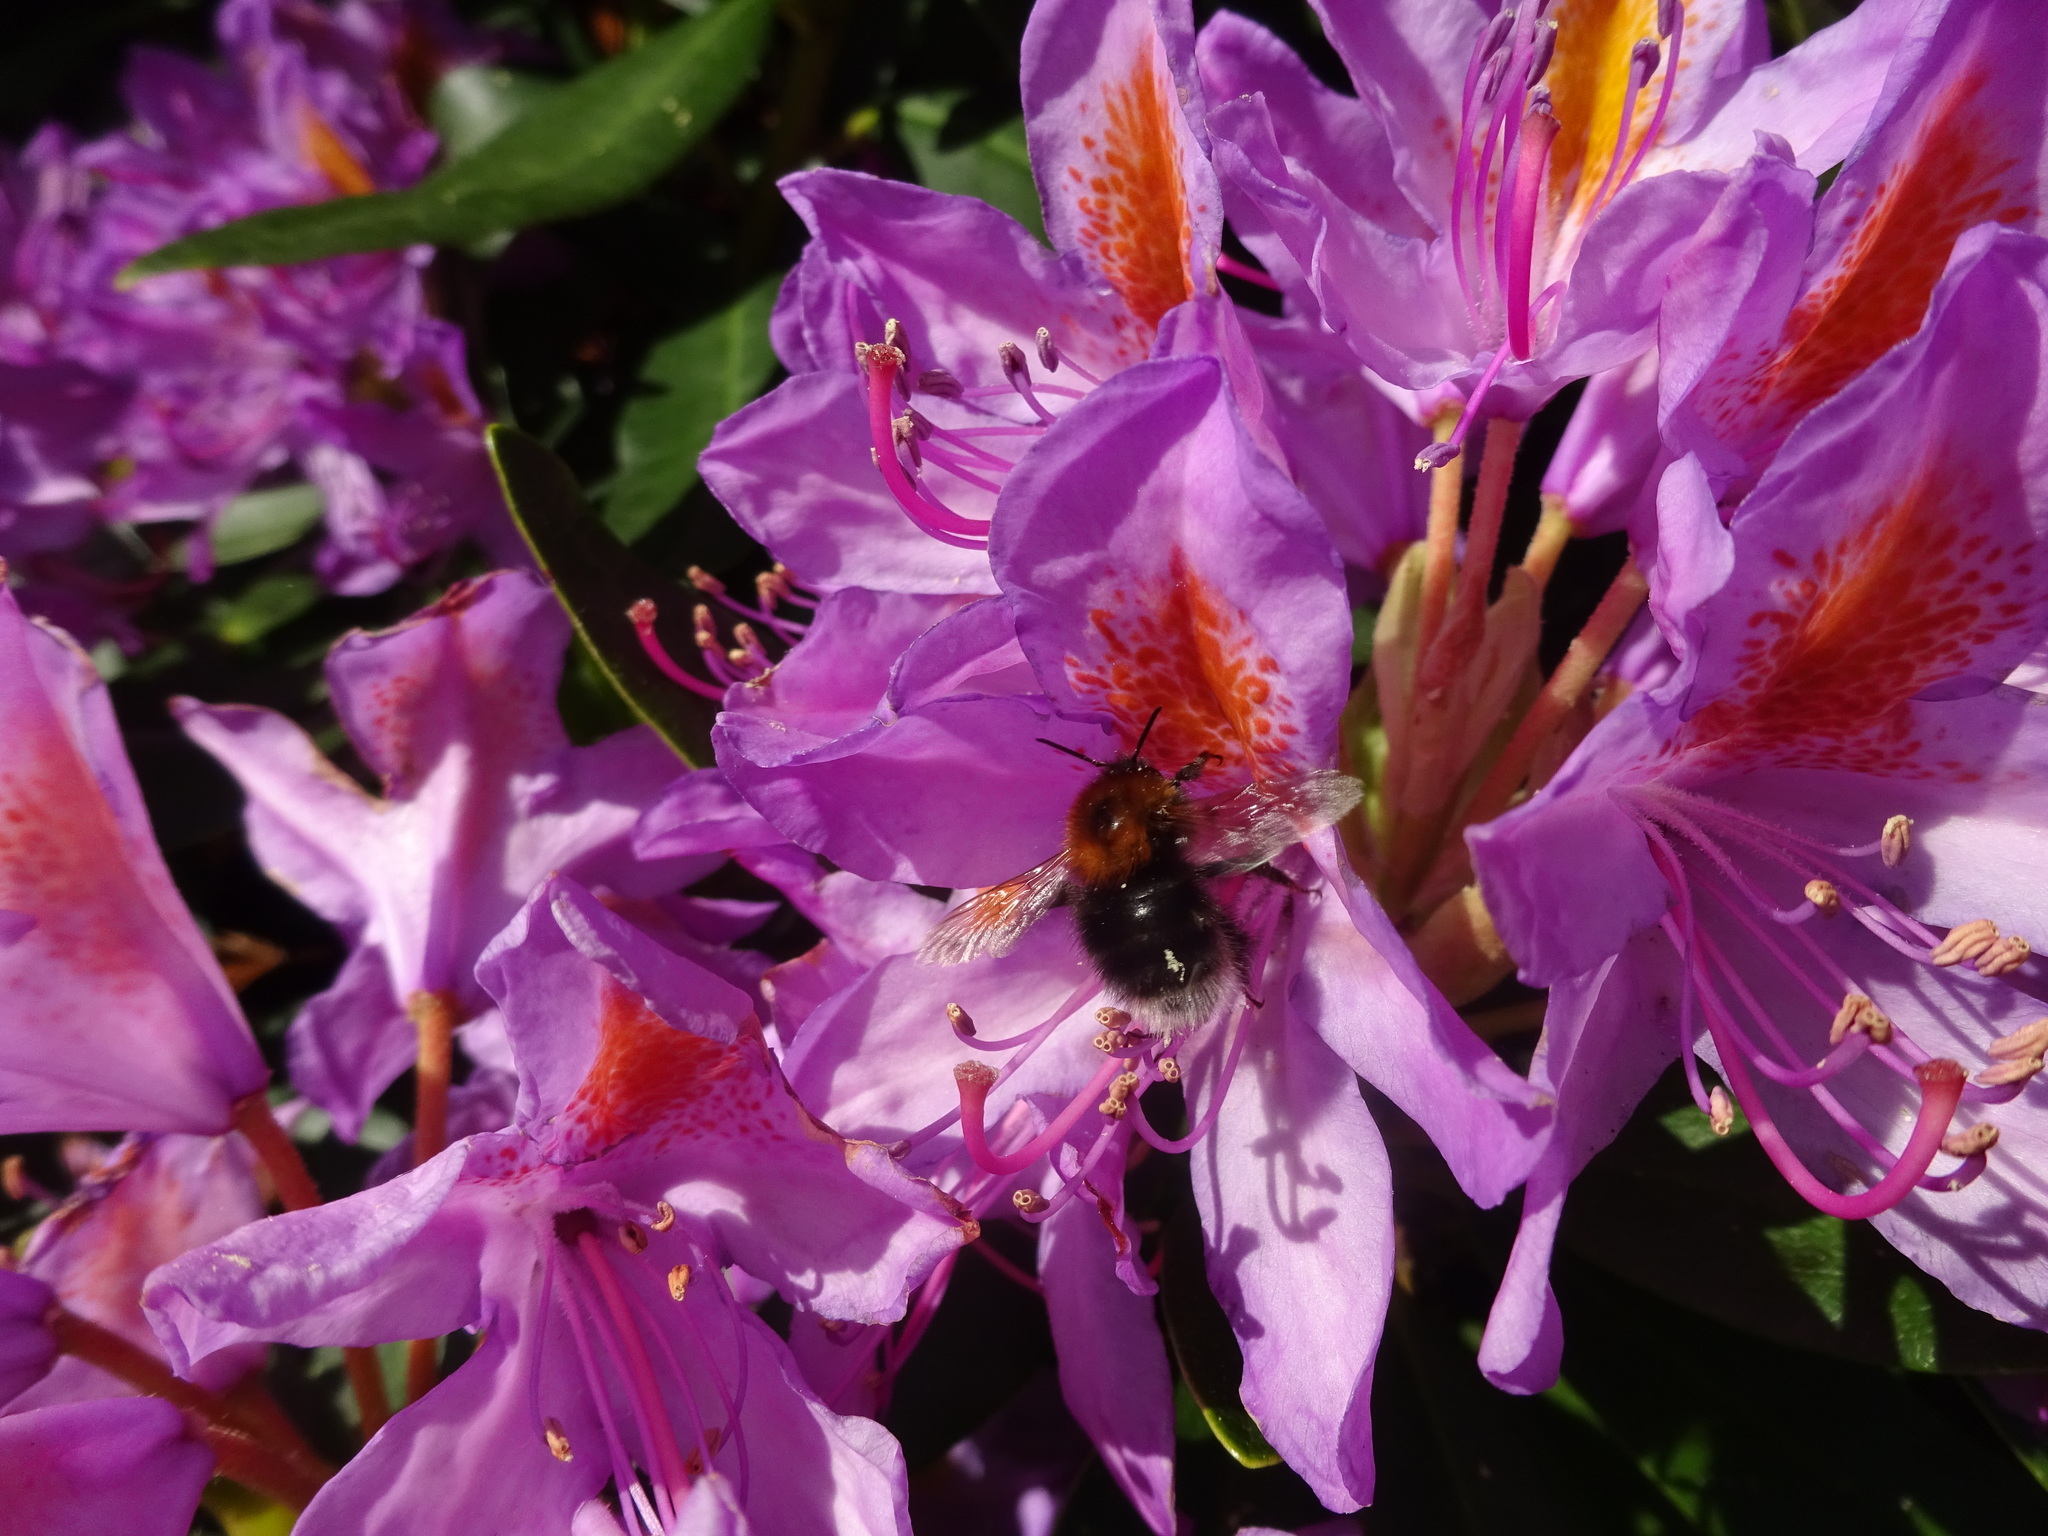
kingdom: Animalia
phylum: Arthropoda
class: Insecta
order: Hymenoptera
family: Apidae
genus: Bombus
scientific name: Bombus hypnorum
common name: New garden bumblebee
